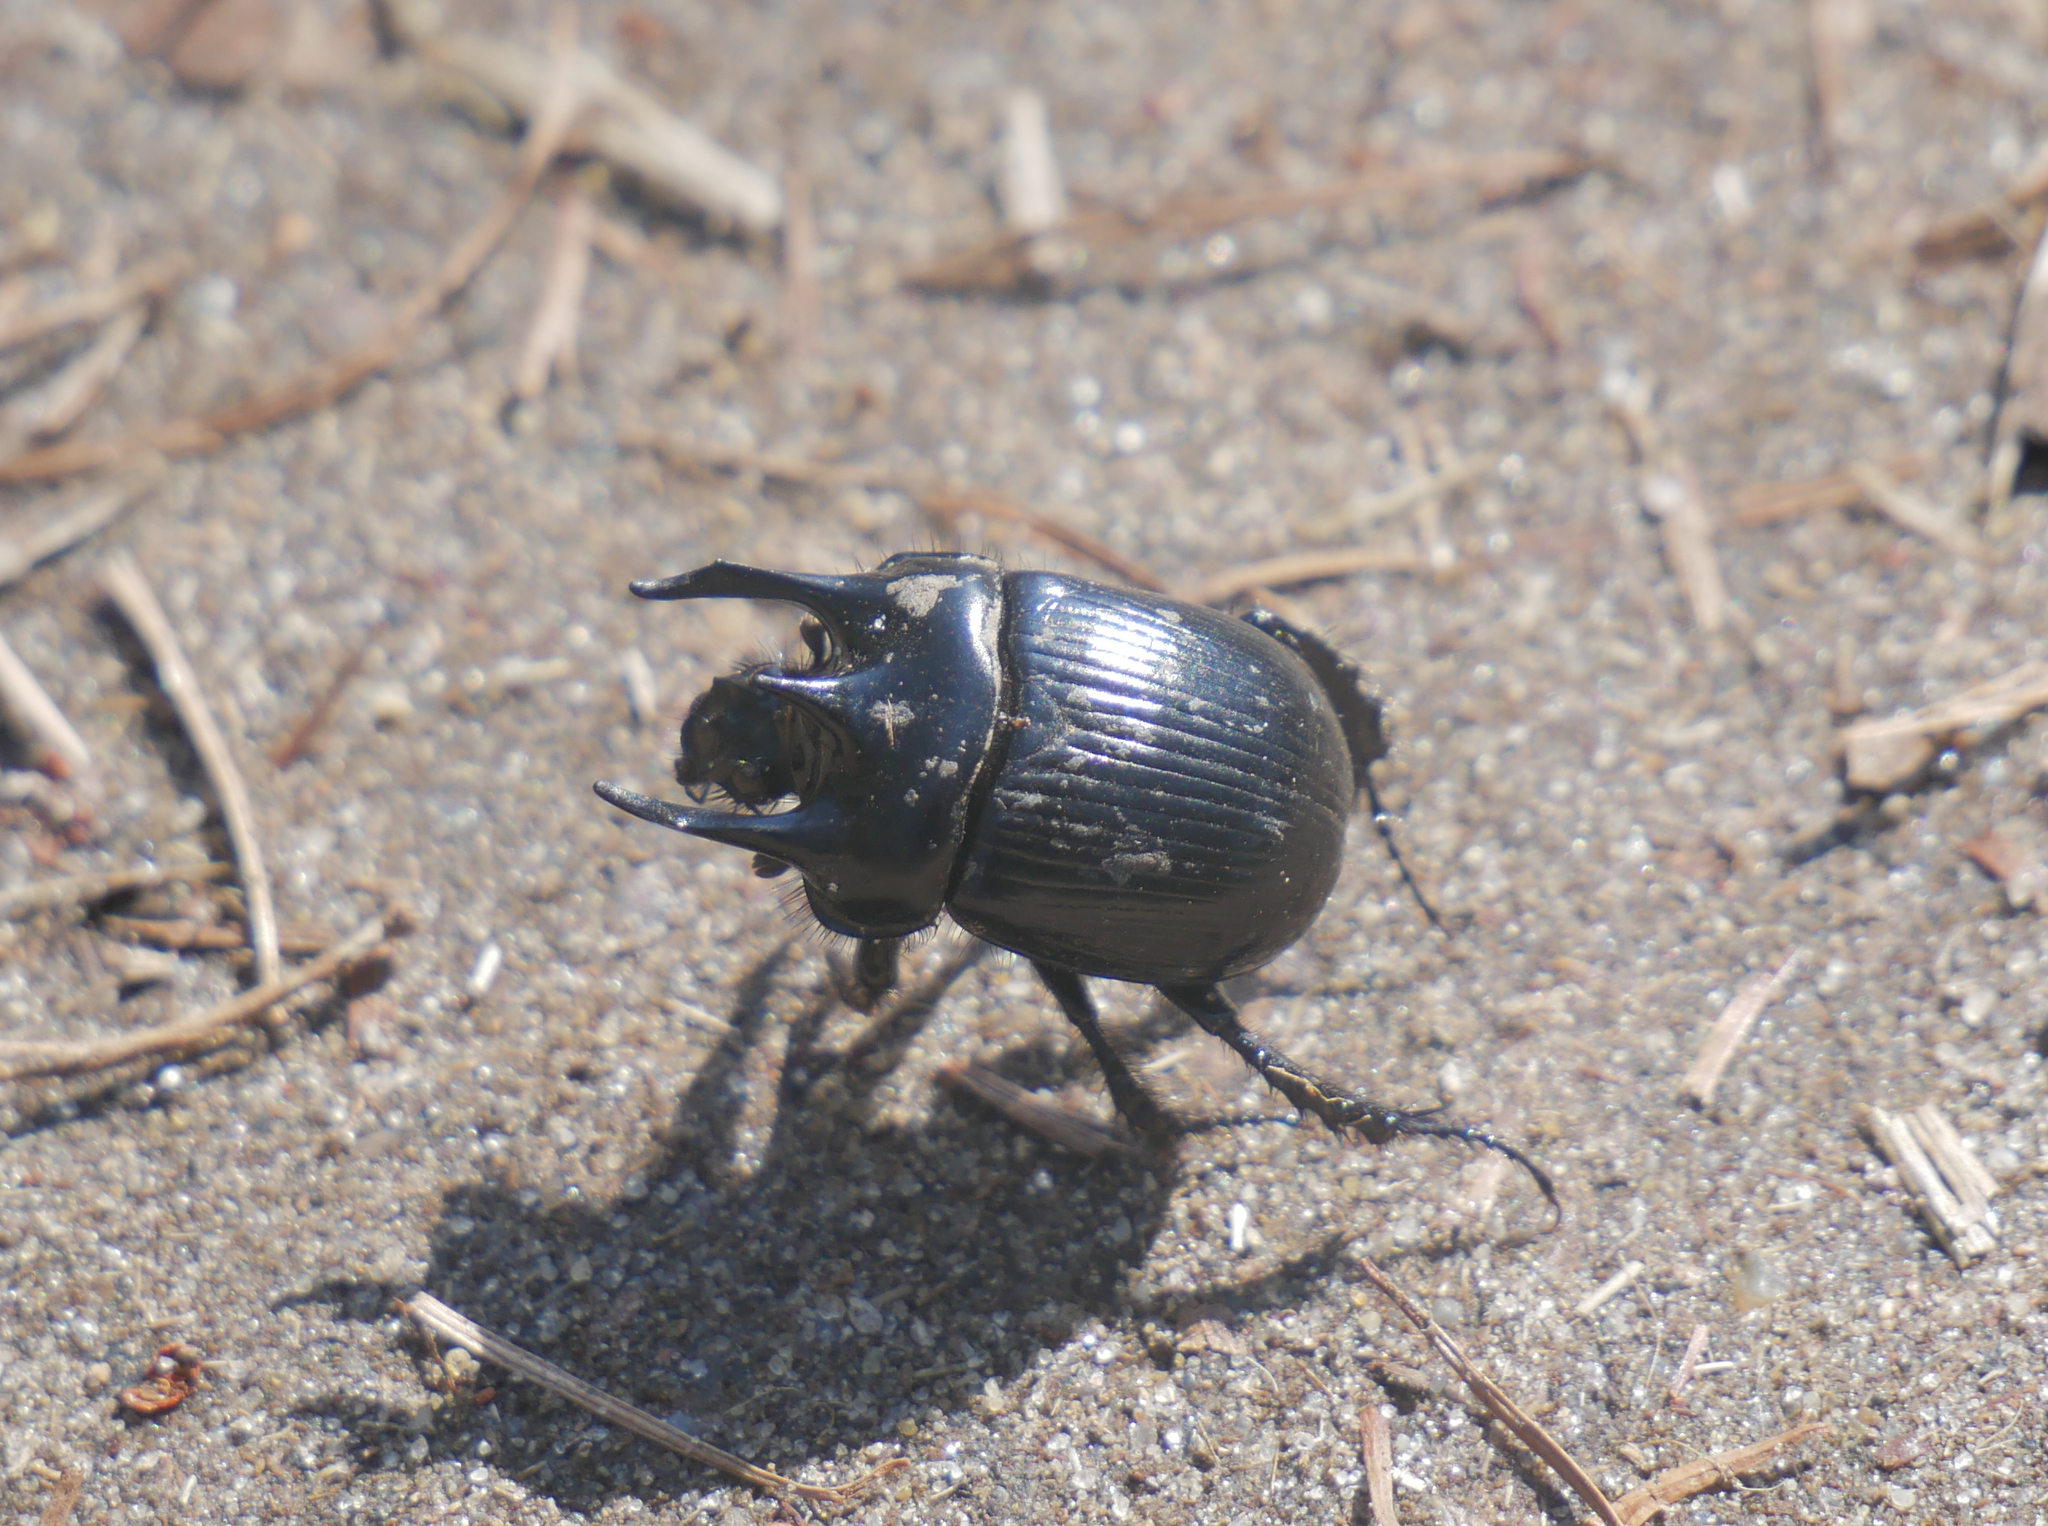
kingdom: Animalia
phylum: Arthropoda
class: Insecta
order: Coleoptera
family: Geotrupidae
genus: Typhaeus
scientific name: Typhaeus typhoeus
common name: Minotaur beetle
